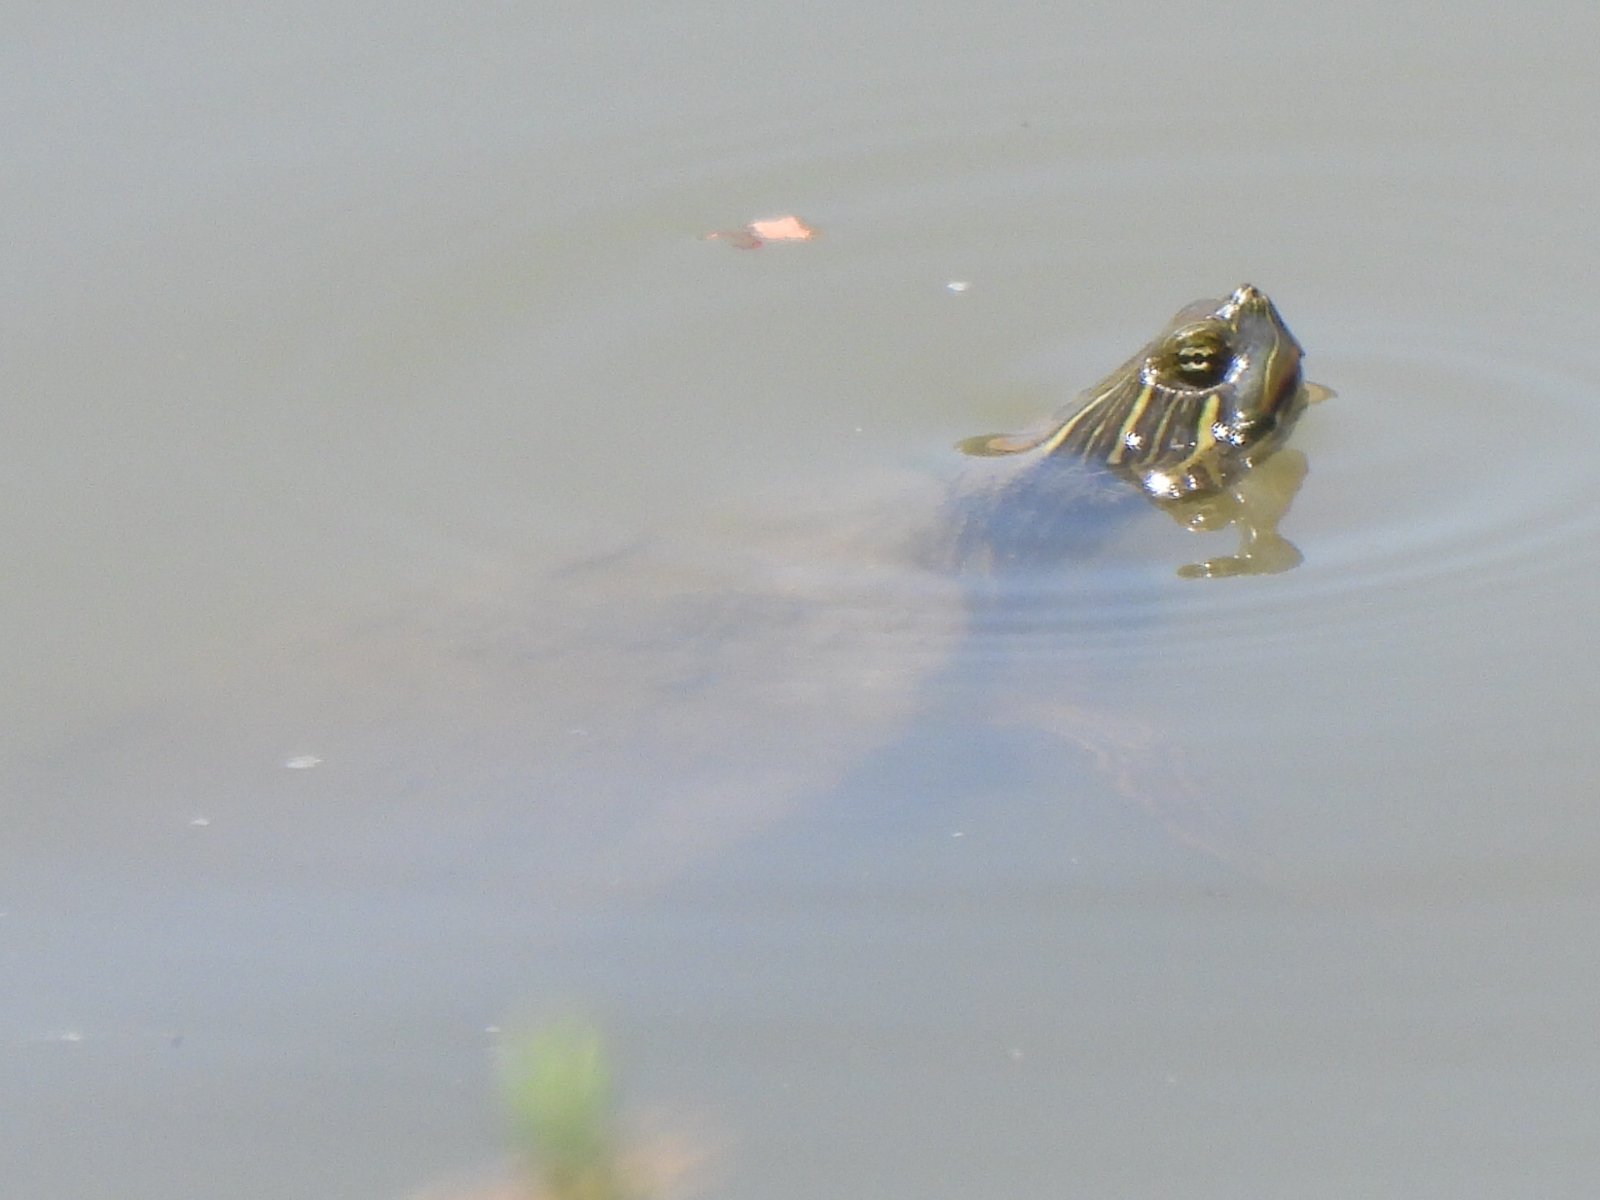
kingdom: Animalia
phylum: Chordata
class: Testudines
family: Emydidae
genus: Pseudemys
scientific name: Pseudemys concinna
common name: Eastern river cooter
